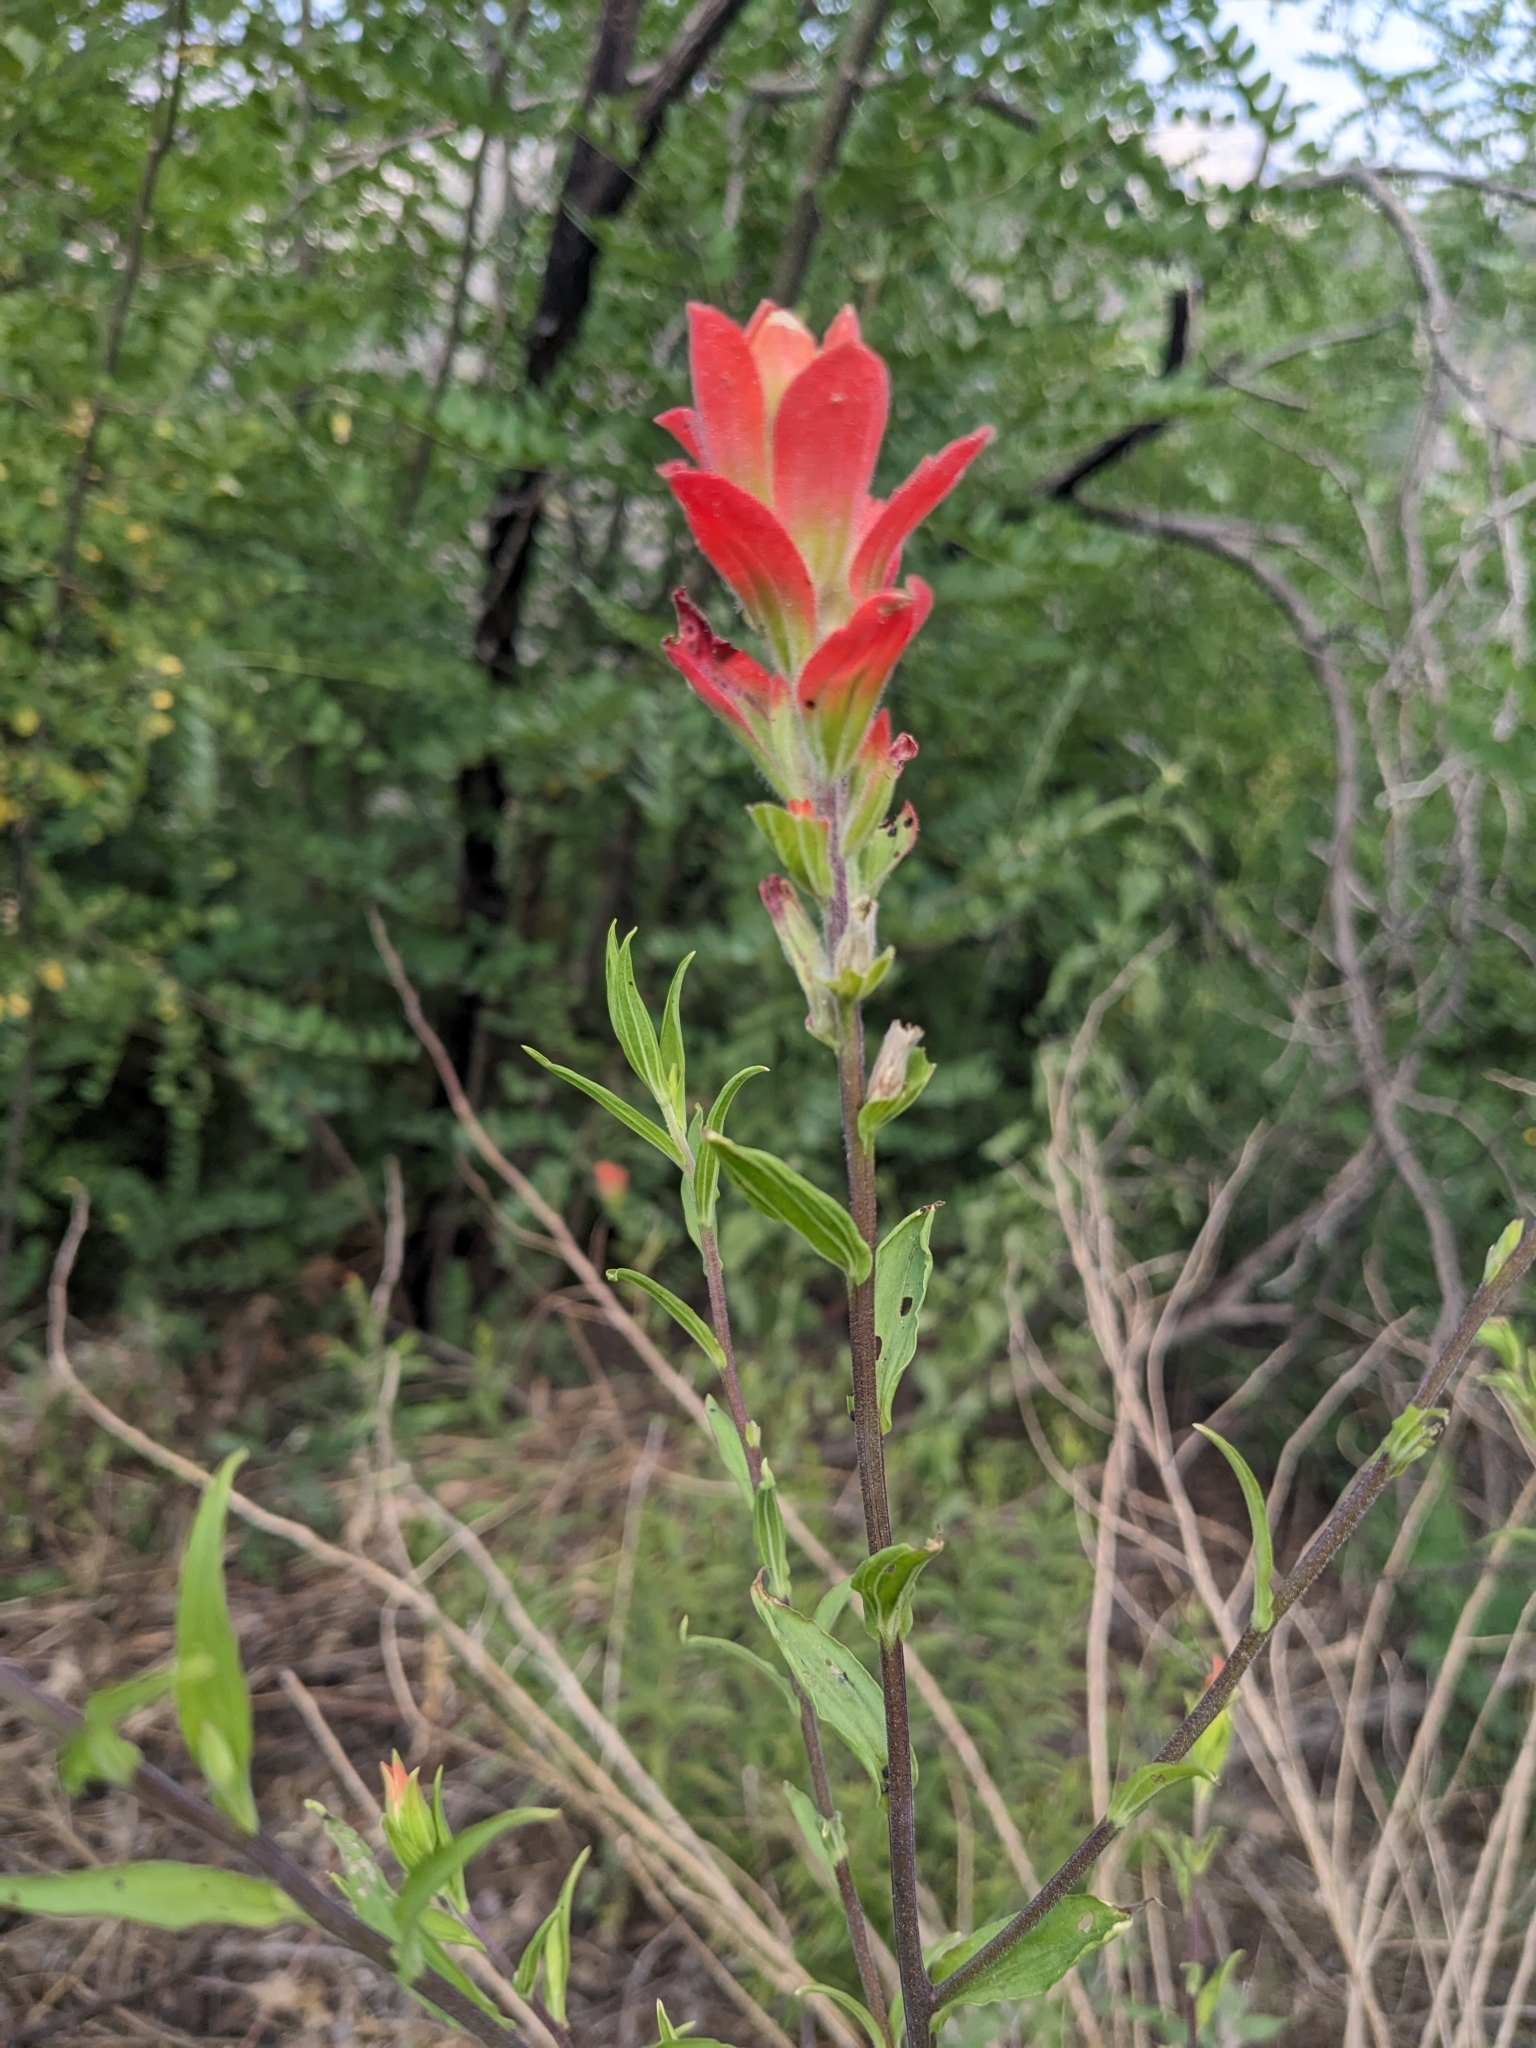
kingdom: Plantae
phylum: Tracheophyta
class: Magnoliopsida
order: Lamiales
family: Orobanchaceae
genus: Castilleja
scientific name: Castilleja nelsonii
